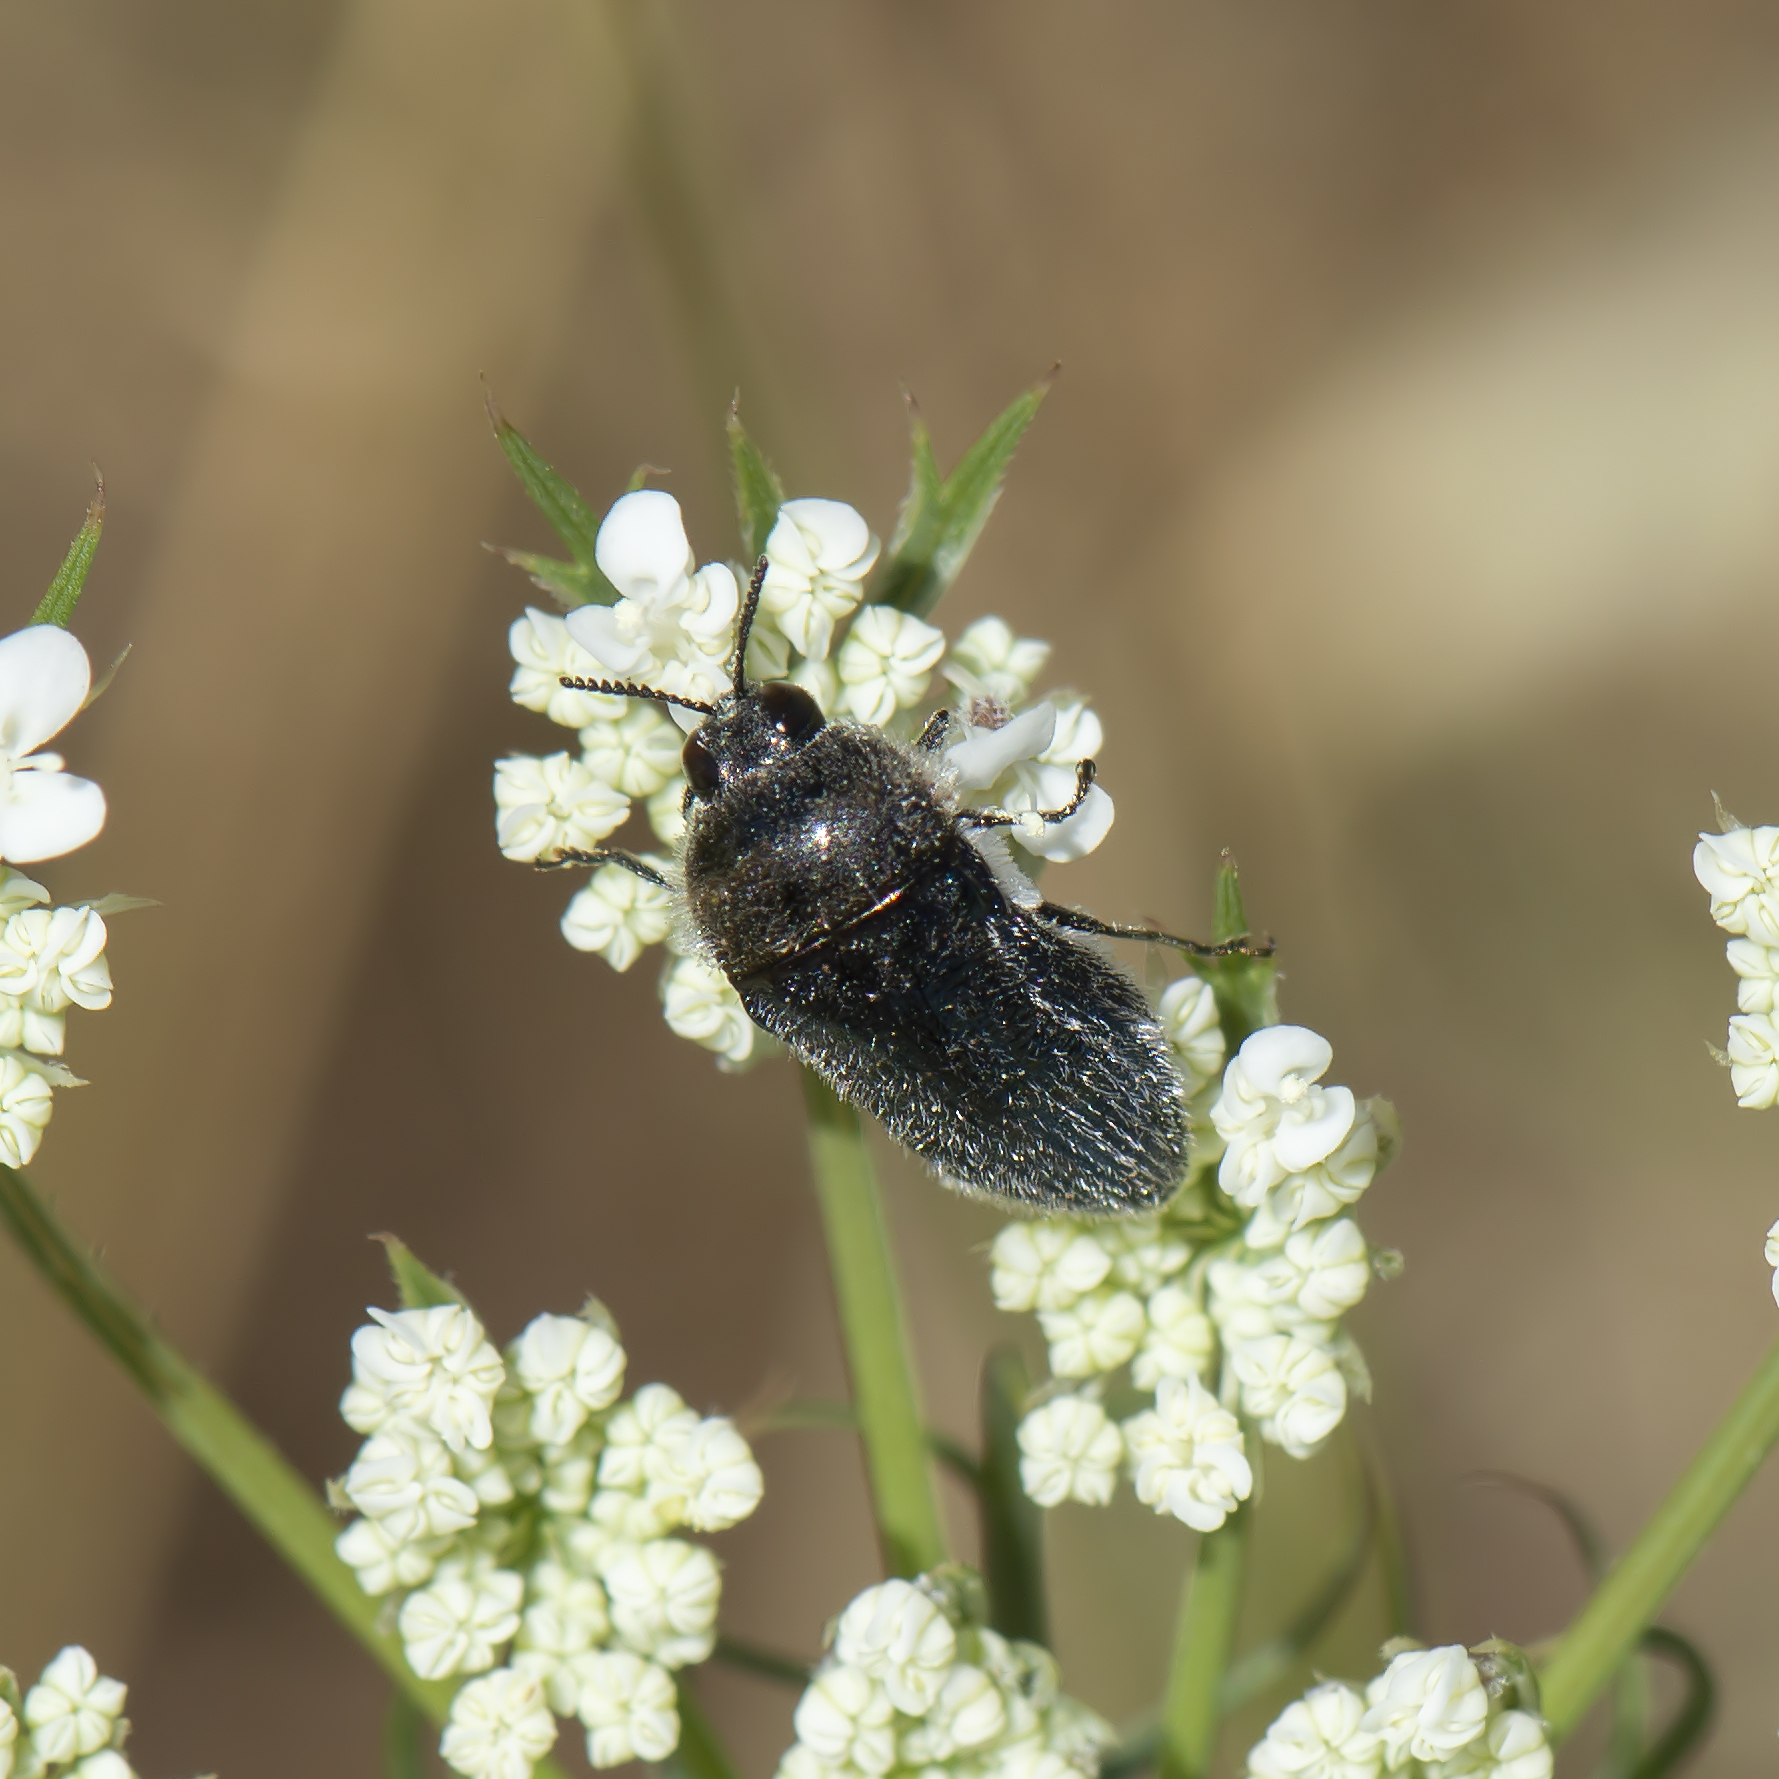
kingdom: Animalia
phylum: Arthropoda
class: Insecta
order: Coleoptera
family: Buprestidae
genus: Acmaeoderella
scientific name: Acmaeoderella villosula
